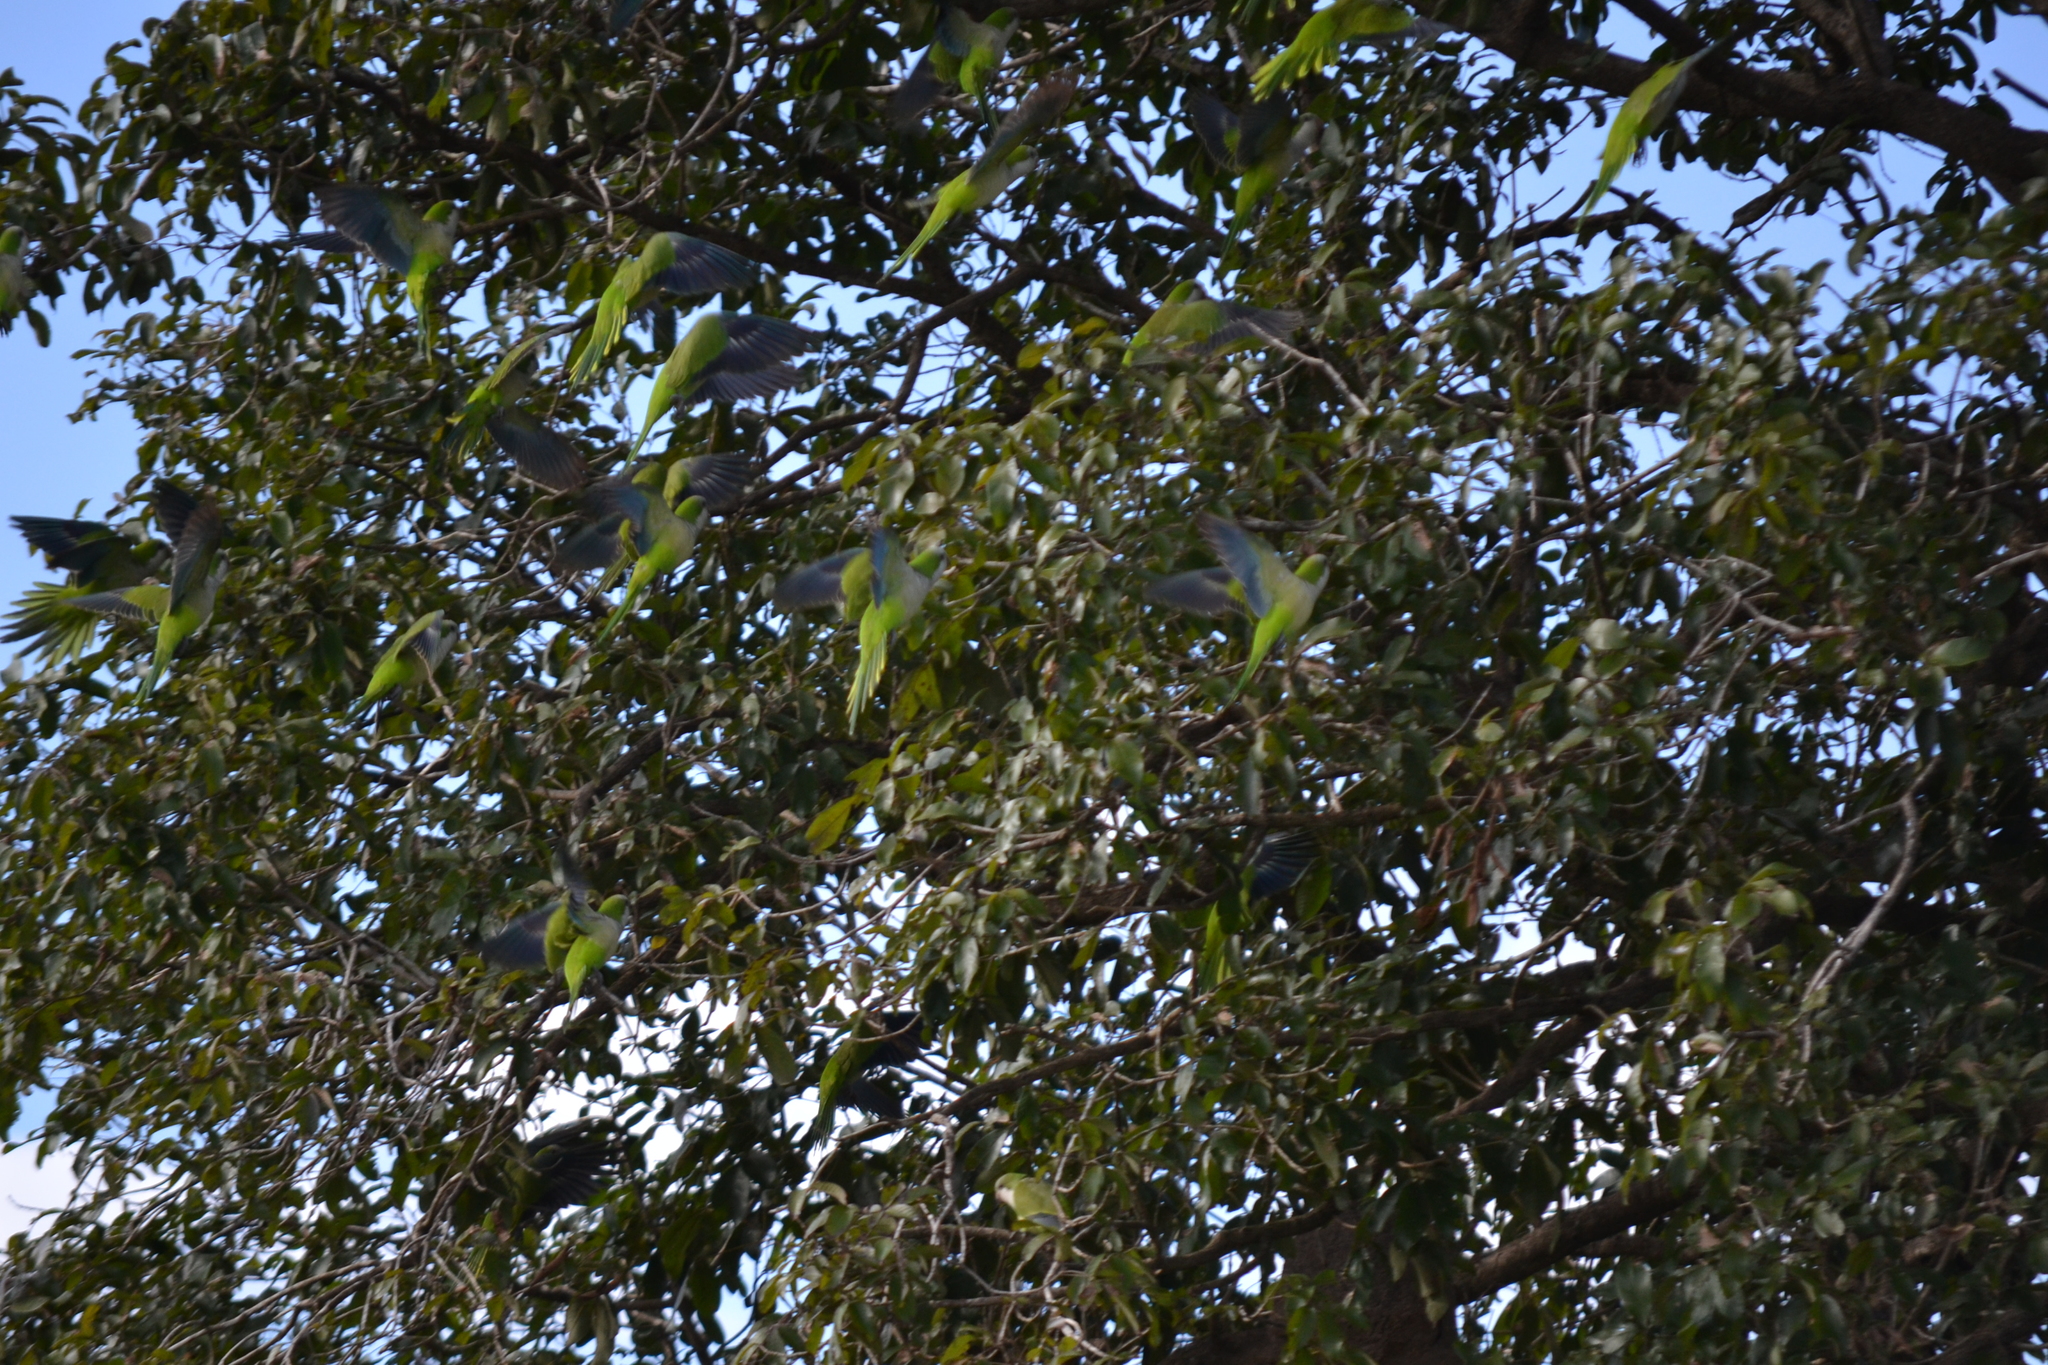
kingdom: Animalia
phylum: Chordata
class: Aves
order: Psittaciformes
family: Psittacidae
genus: Myiopsitta
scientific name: Myiopsitta monachus
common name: Monk parakeet
